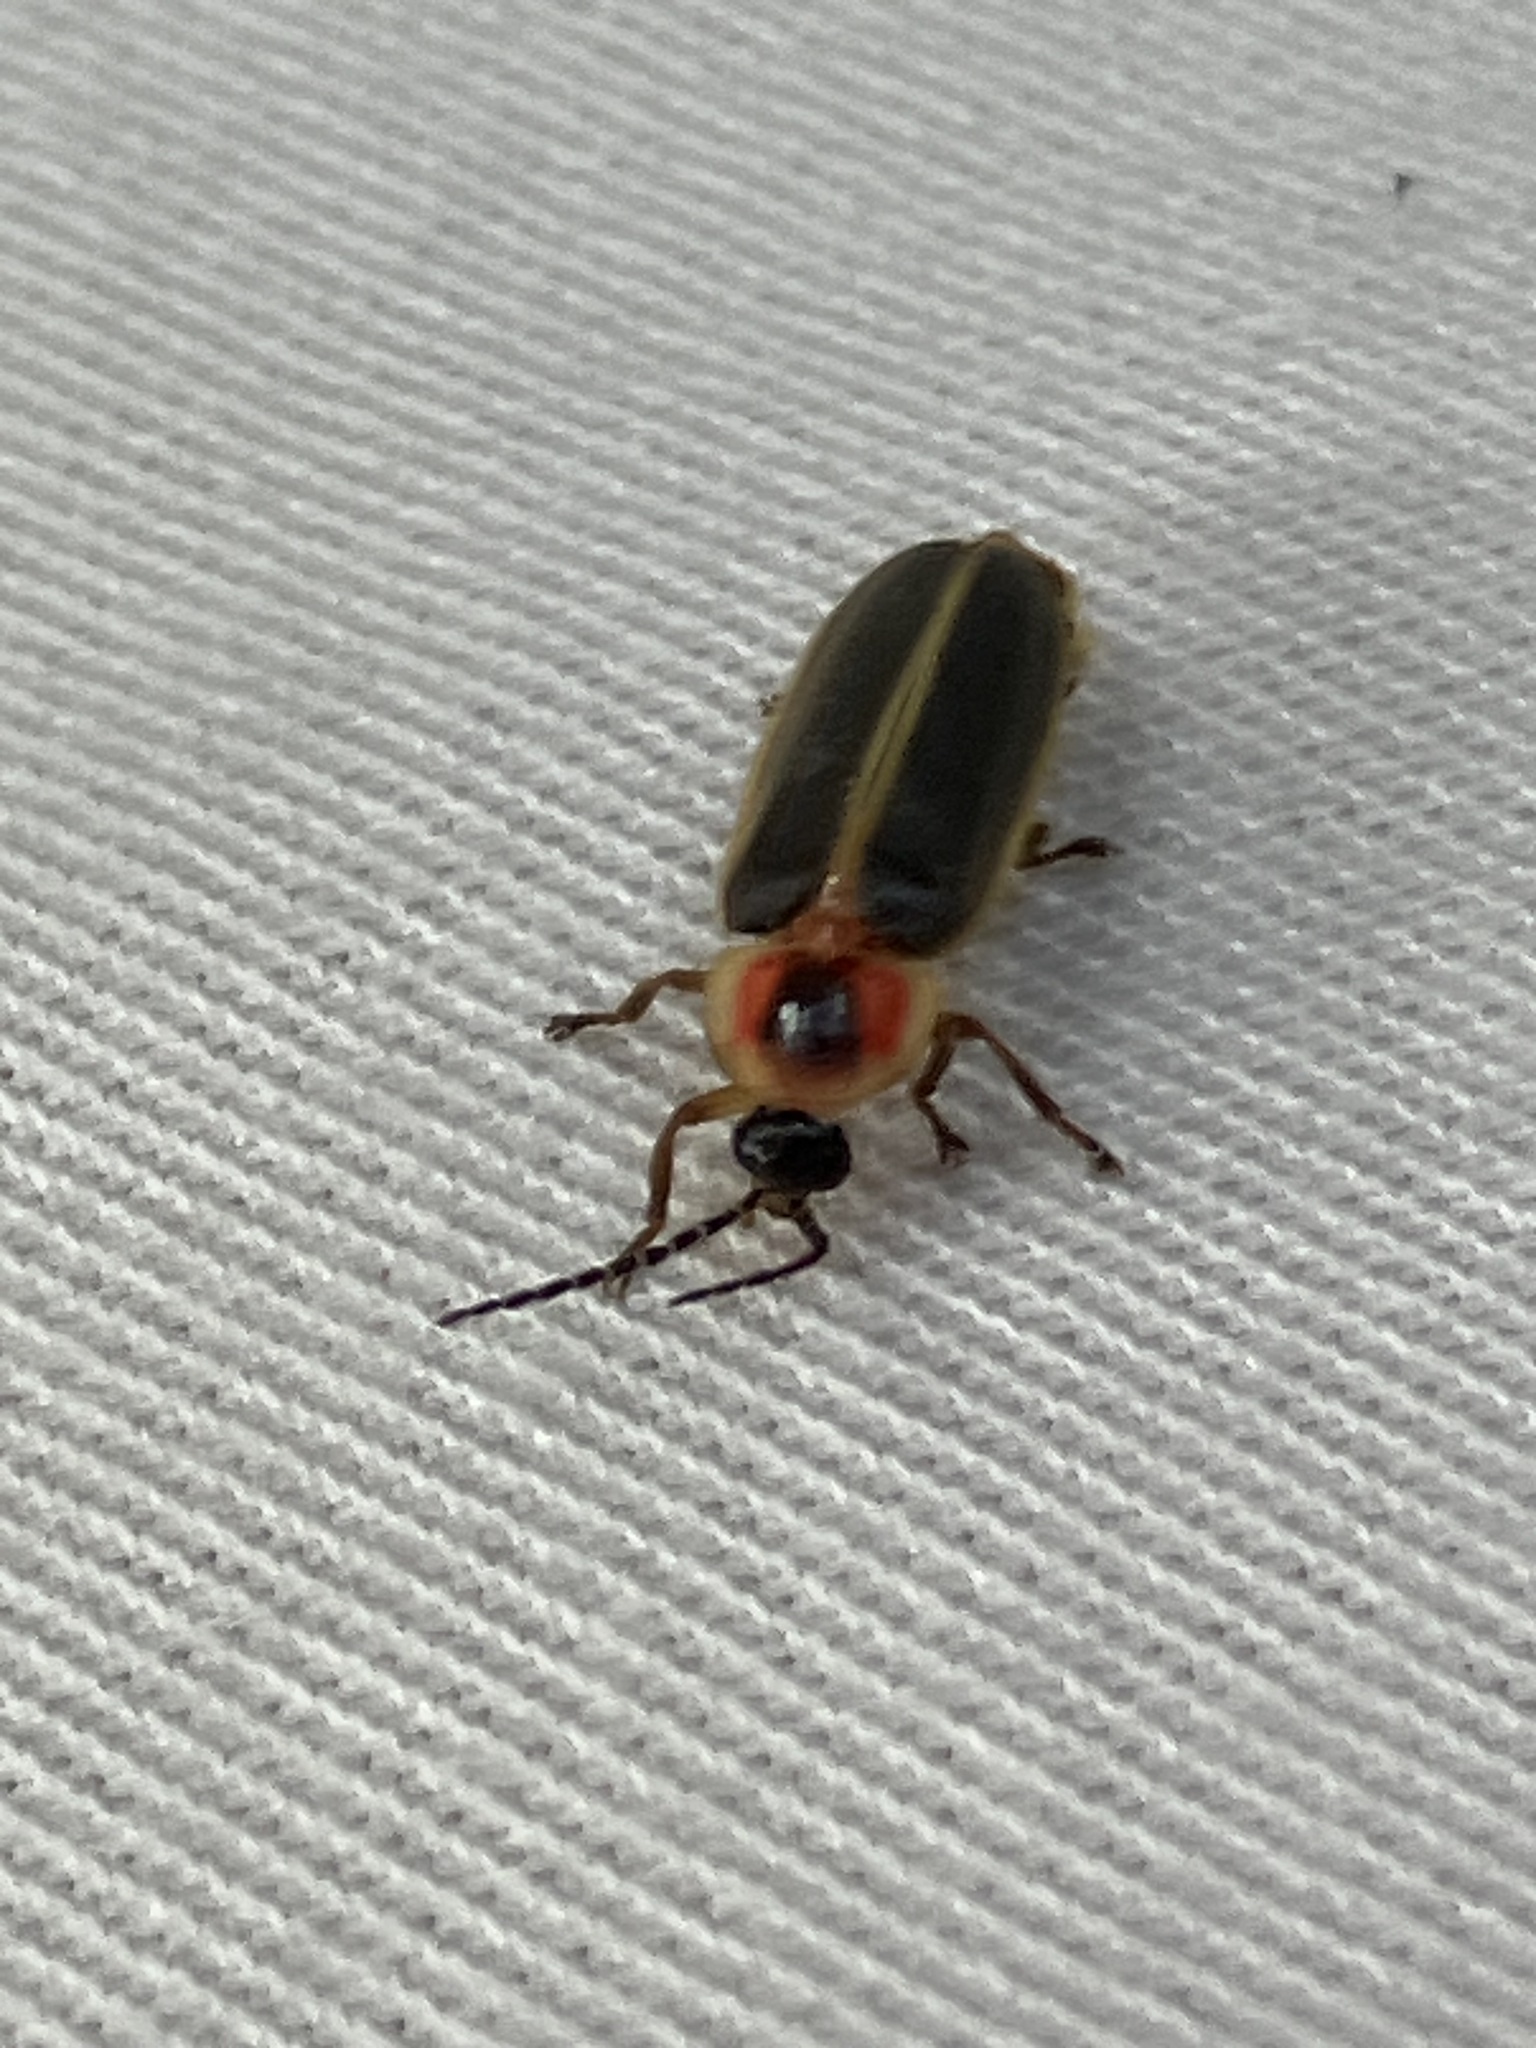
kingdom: Animalia
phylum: Arthropoda
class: Insecta
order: Coleoptera
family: Lampyridae
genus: Photinus
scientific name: Photinus pyralis
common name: Big dipper firefly
